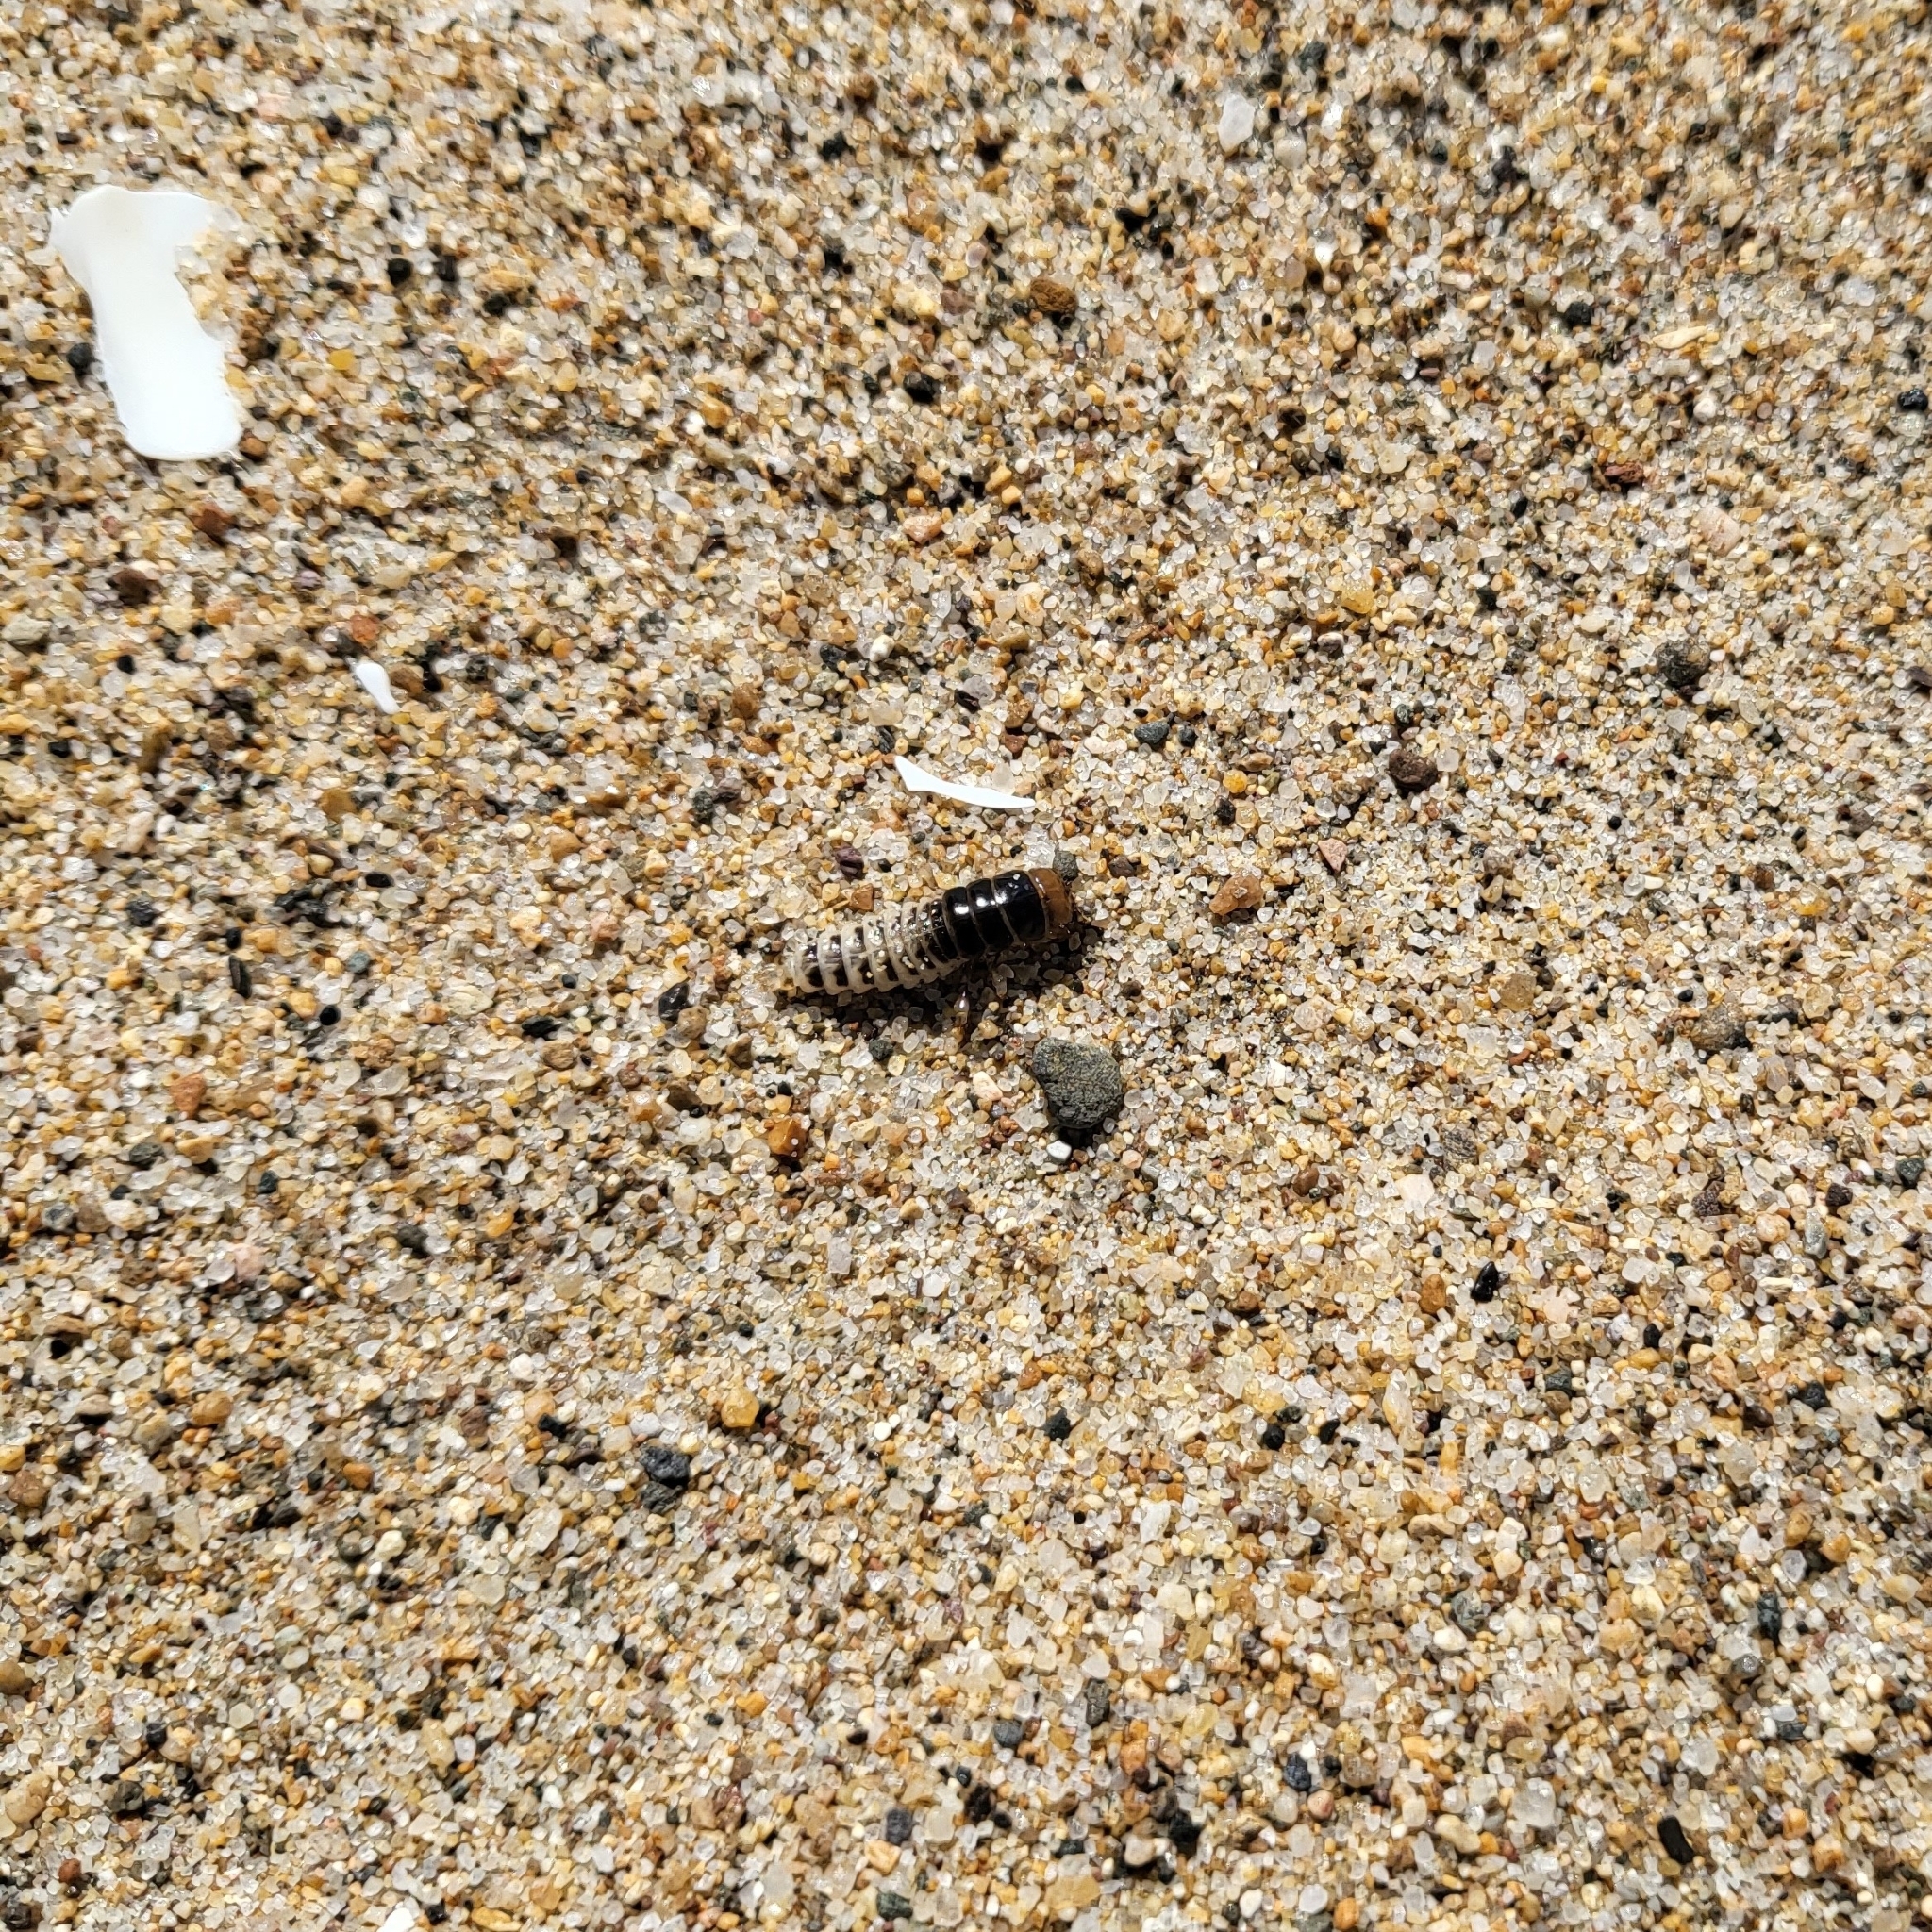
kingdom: Animalia
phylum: Arthropoda
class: Insecta
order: Coleoptera
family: Staphylinidae
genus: Thinopinus
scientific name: Thinopinus pictus
